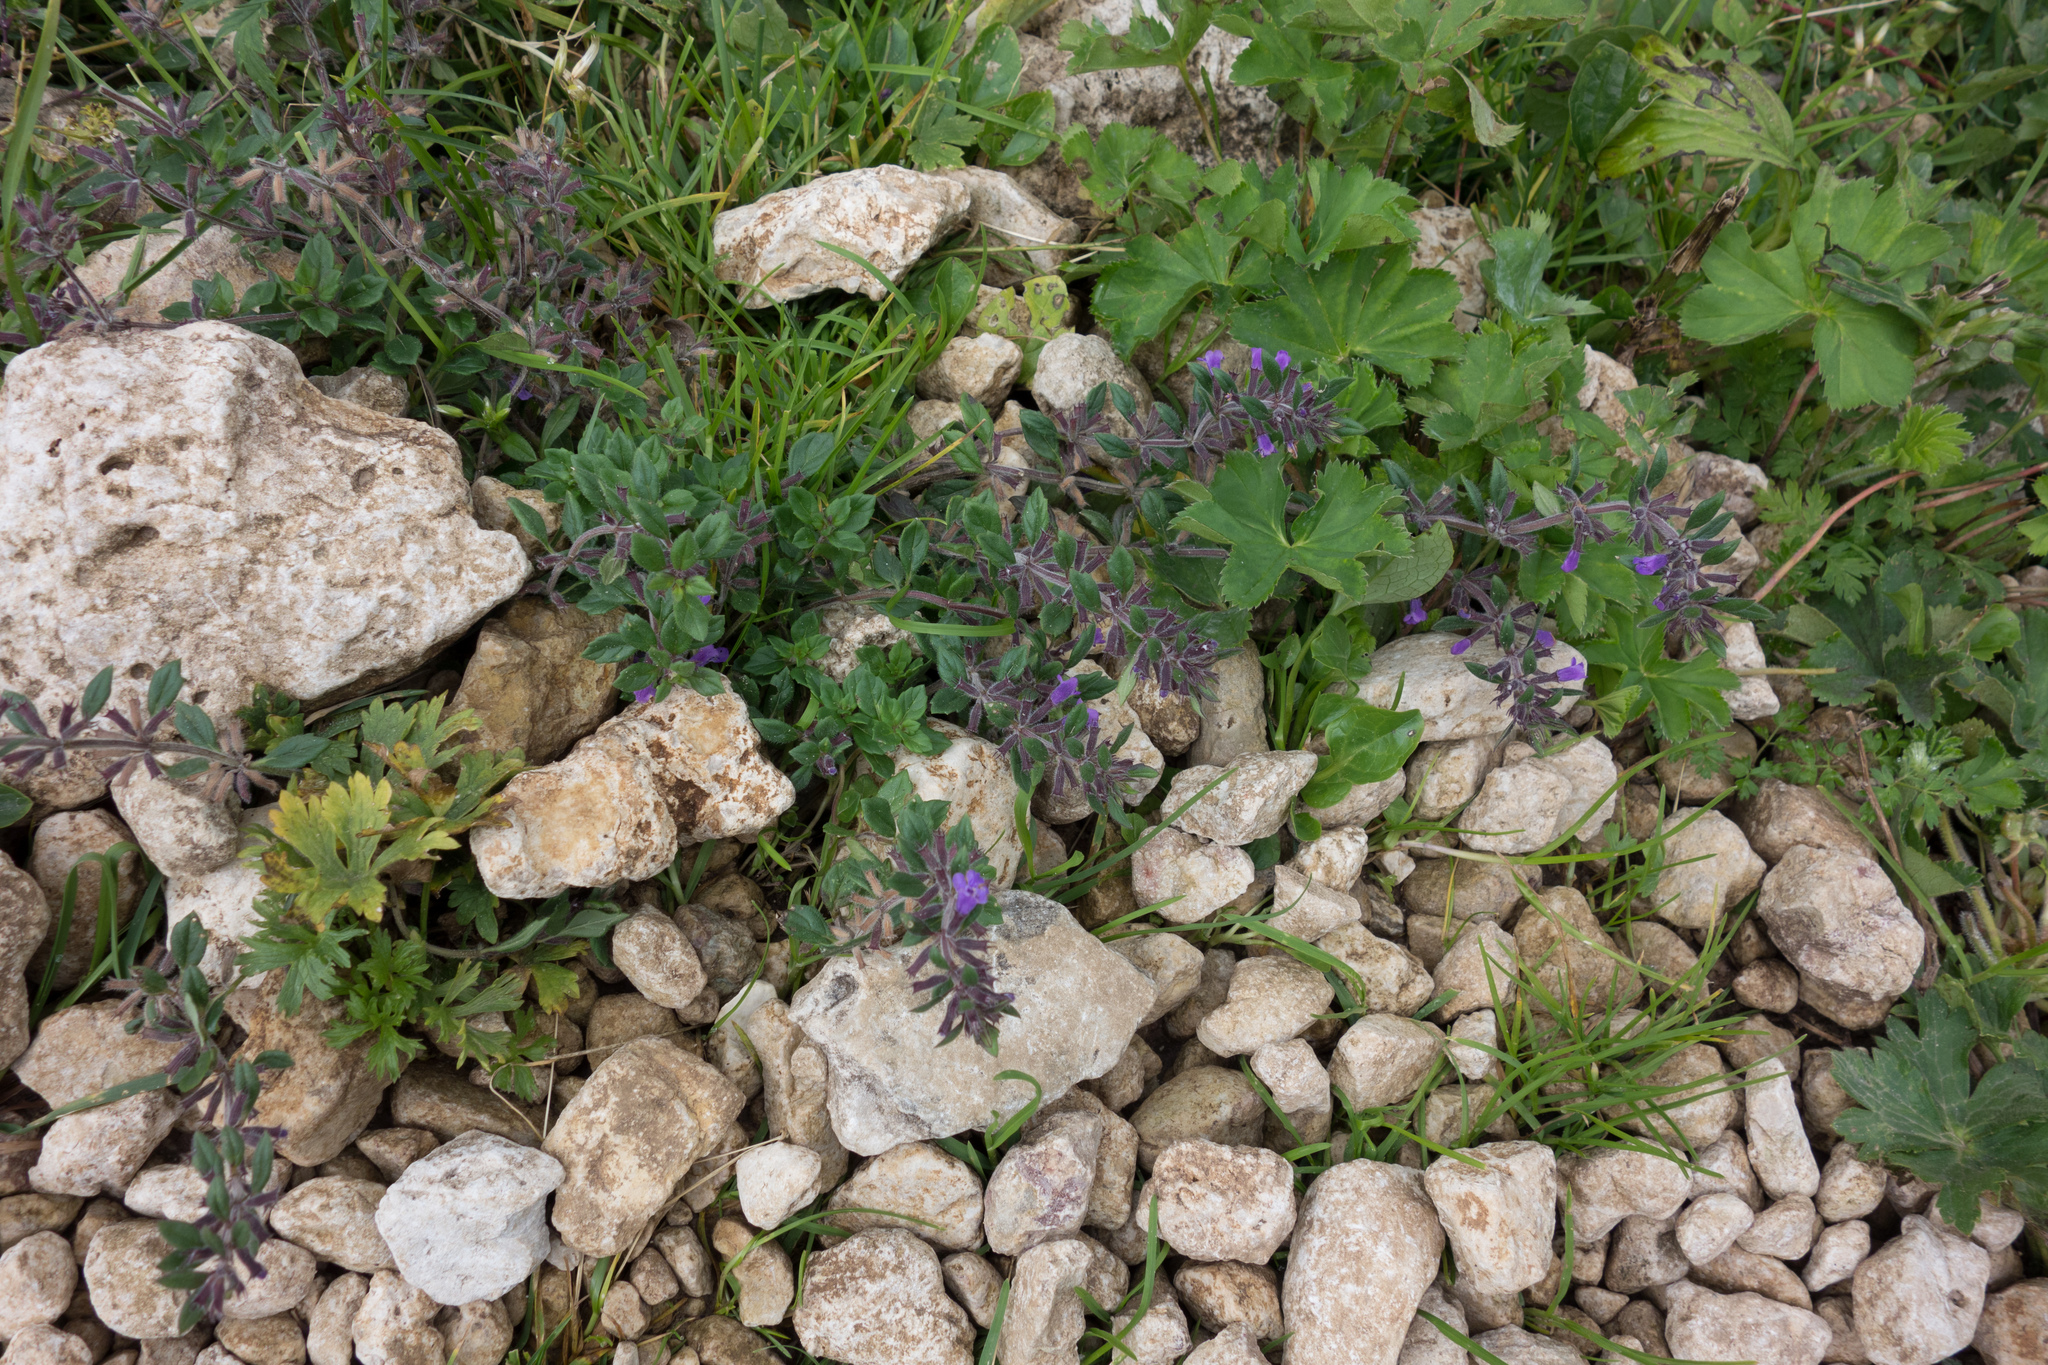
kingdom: Plantae
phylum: Tracheophyta
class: Magnoliopsida
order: Lamiales
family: Lamiaceae
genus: Clinopodium
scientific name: Clinopodium alpinum
